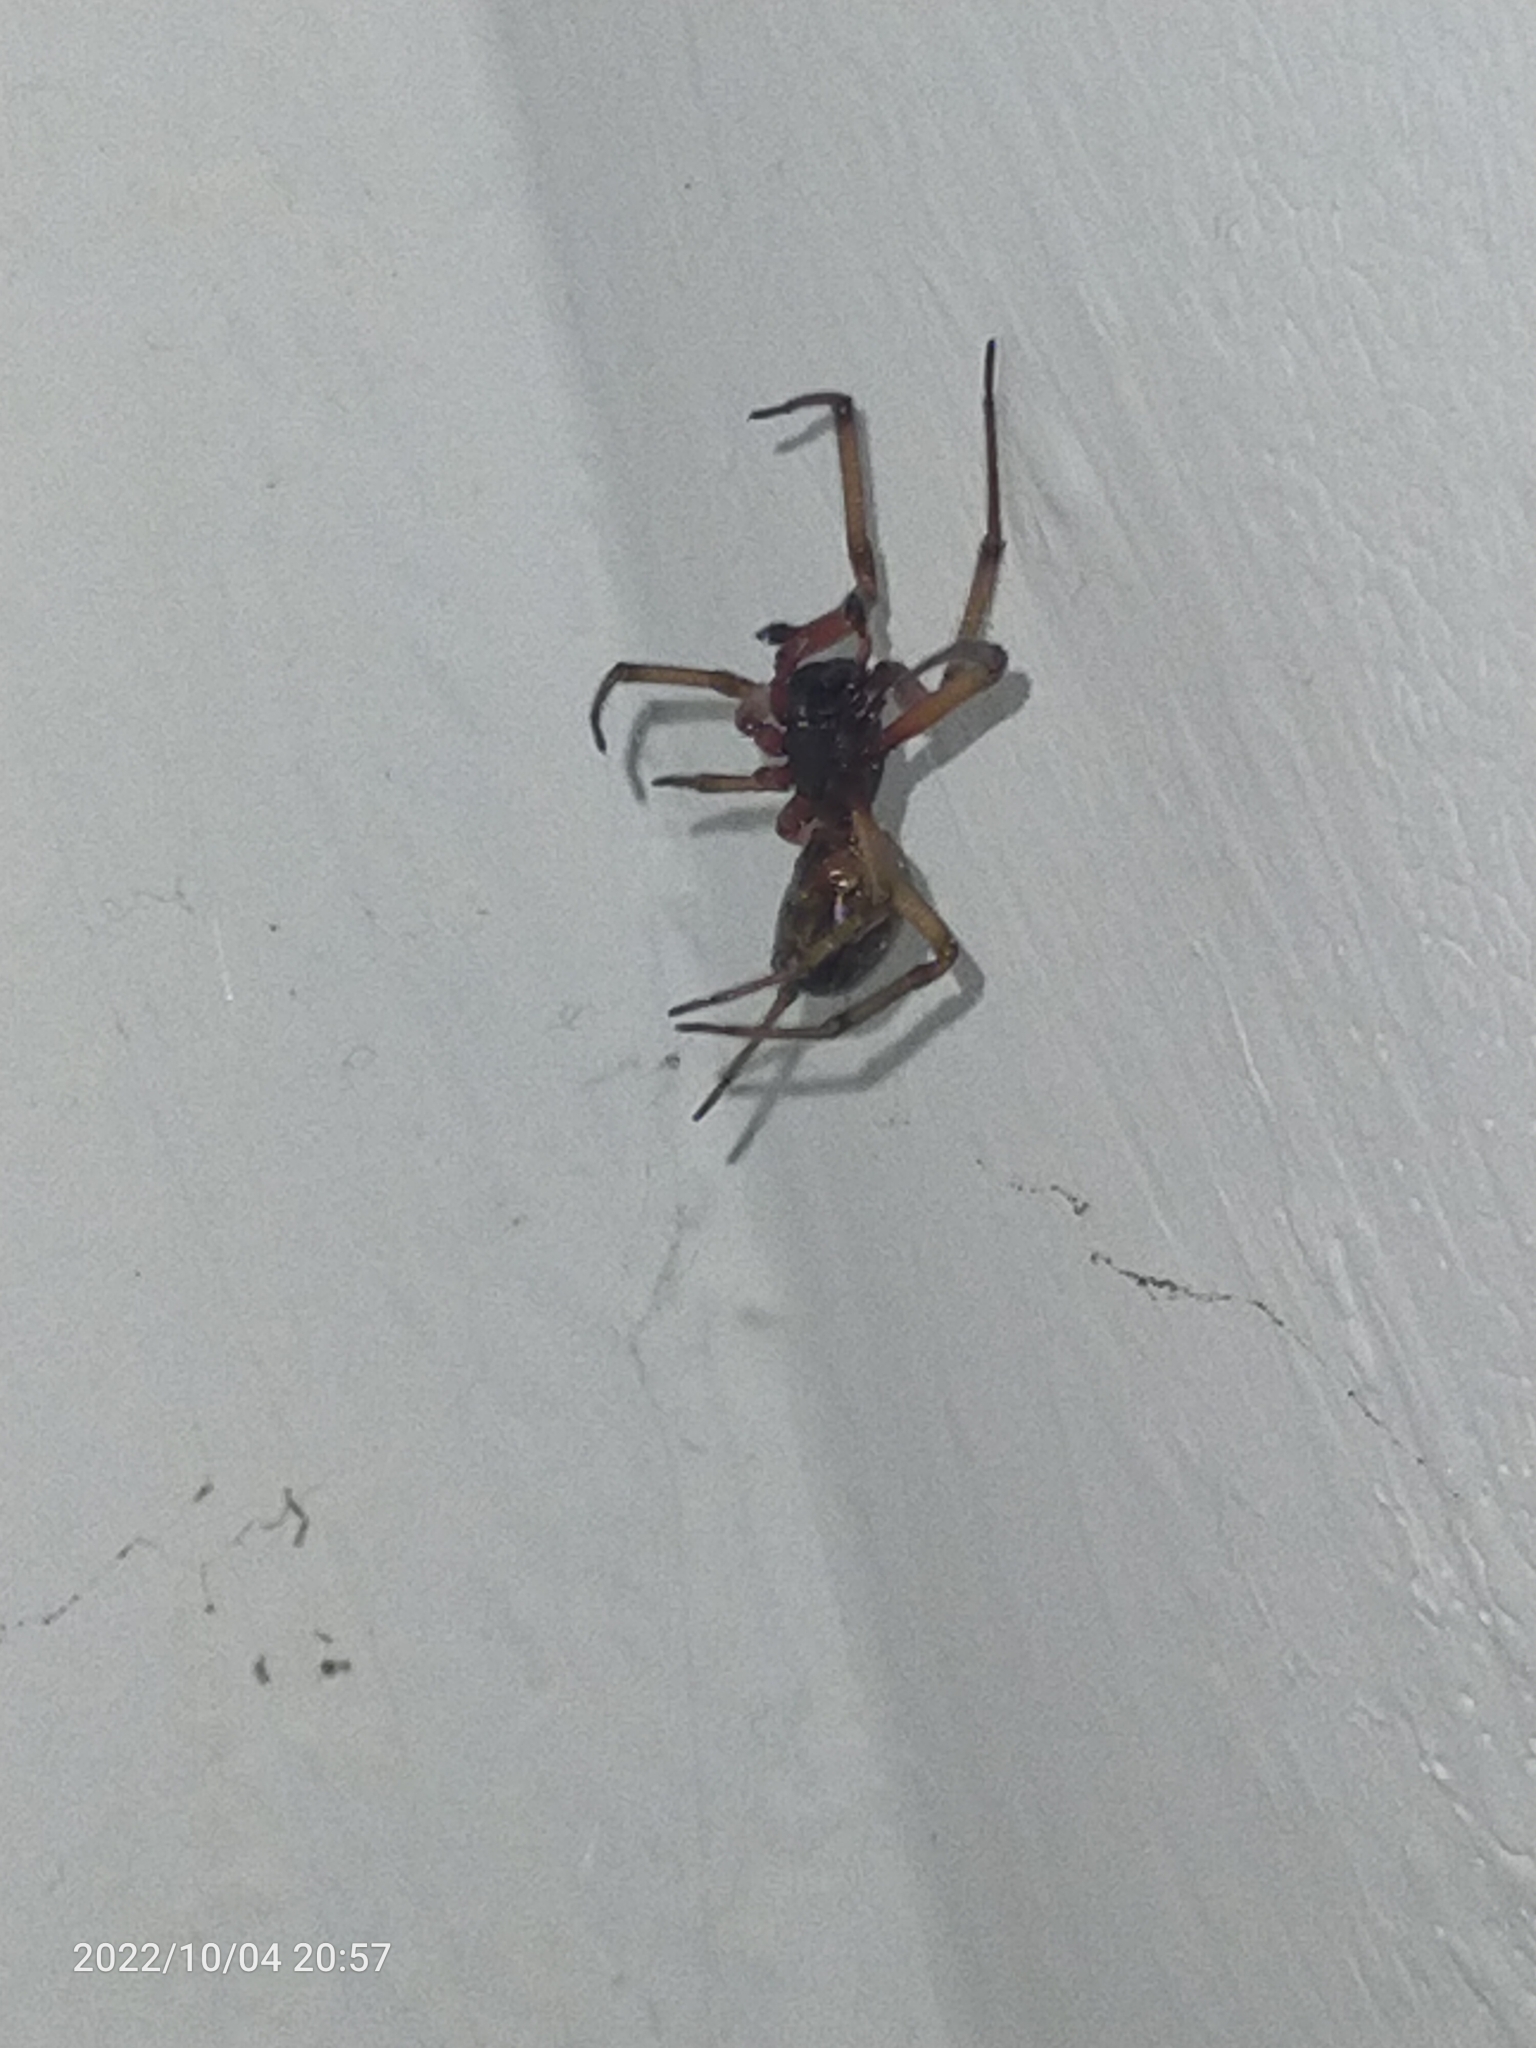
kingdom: Animalia
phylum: Arthropoda
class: Arachnida
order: Araneae
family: Theridiidae
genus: Steatoda
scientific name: Steatoda nobilis
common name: Cobweb weaver
